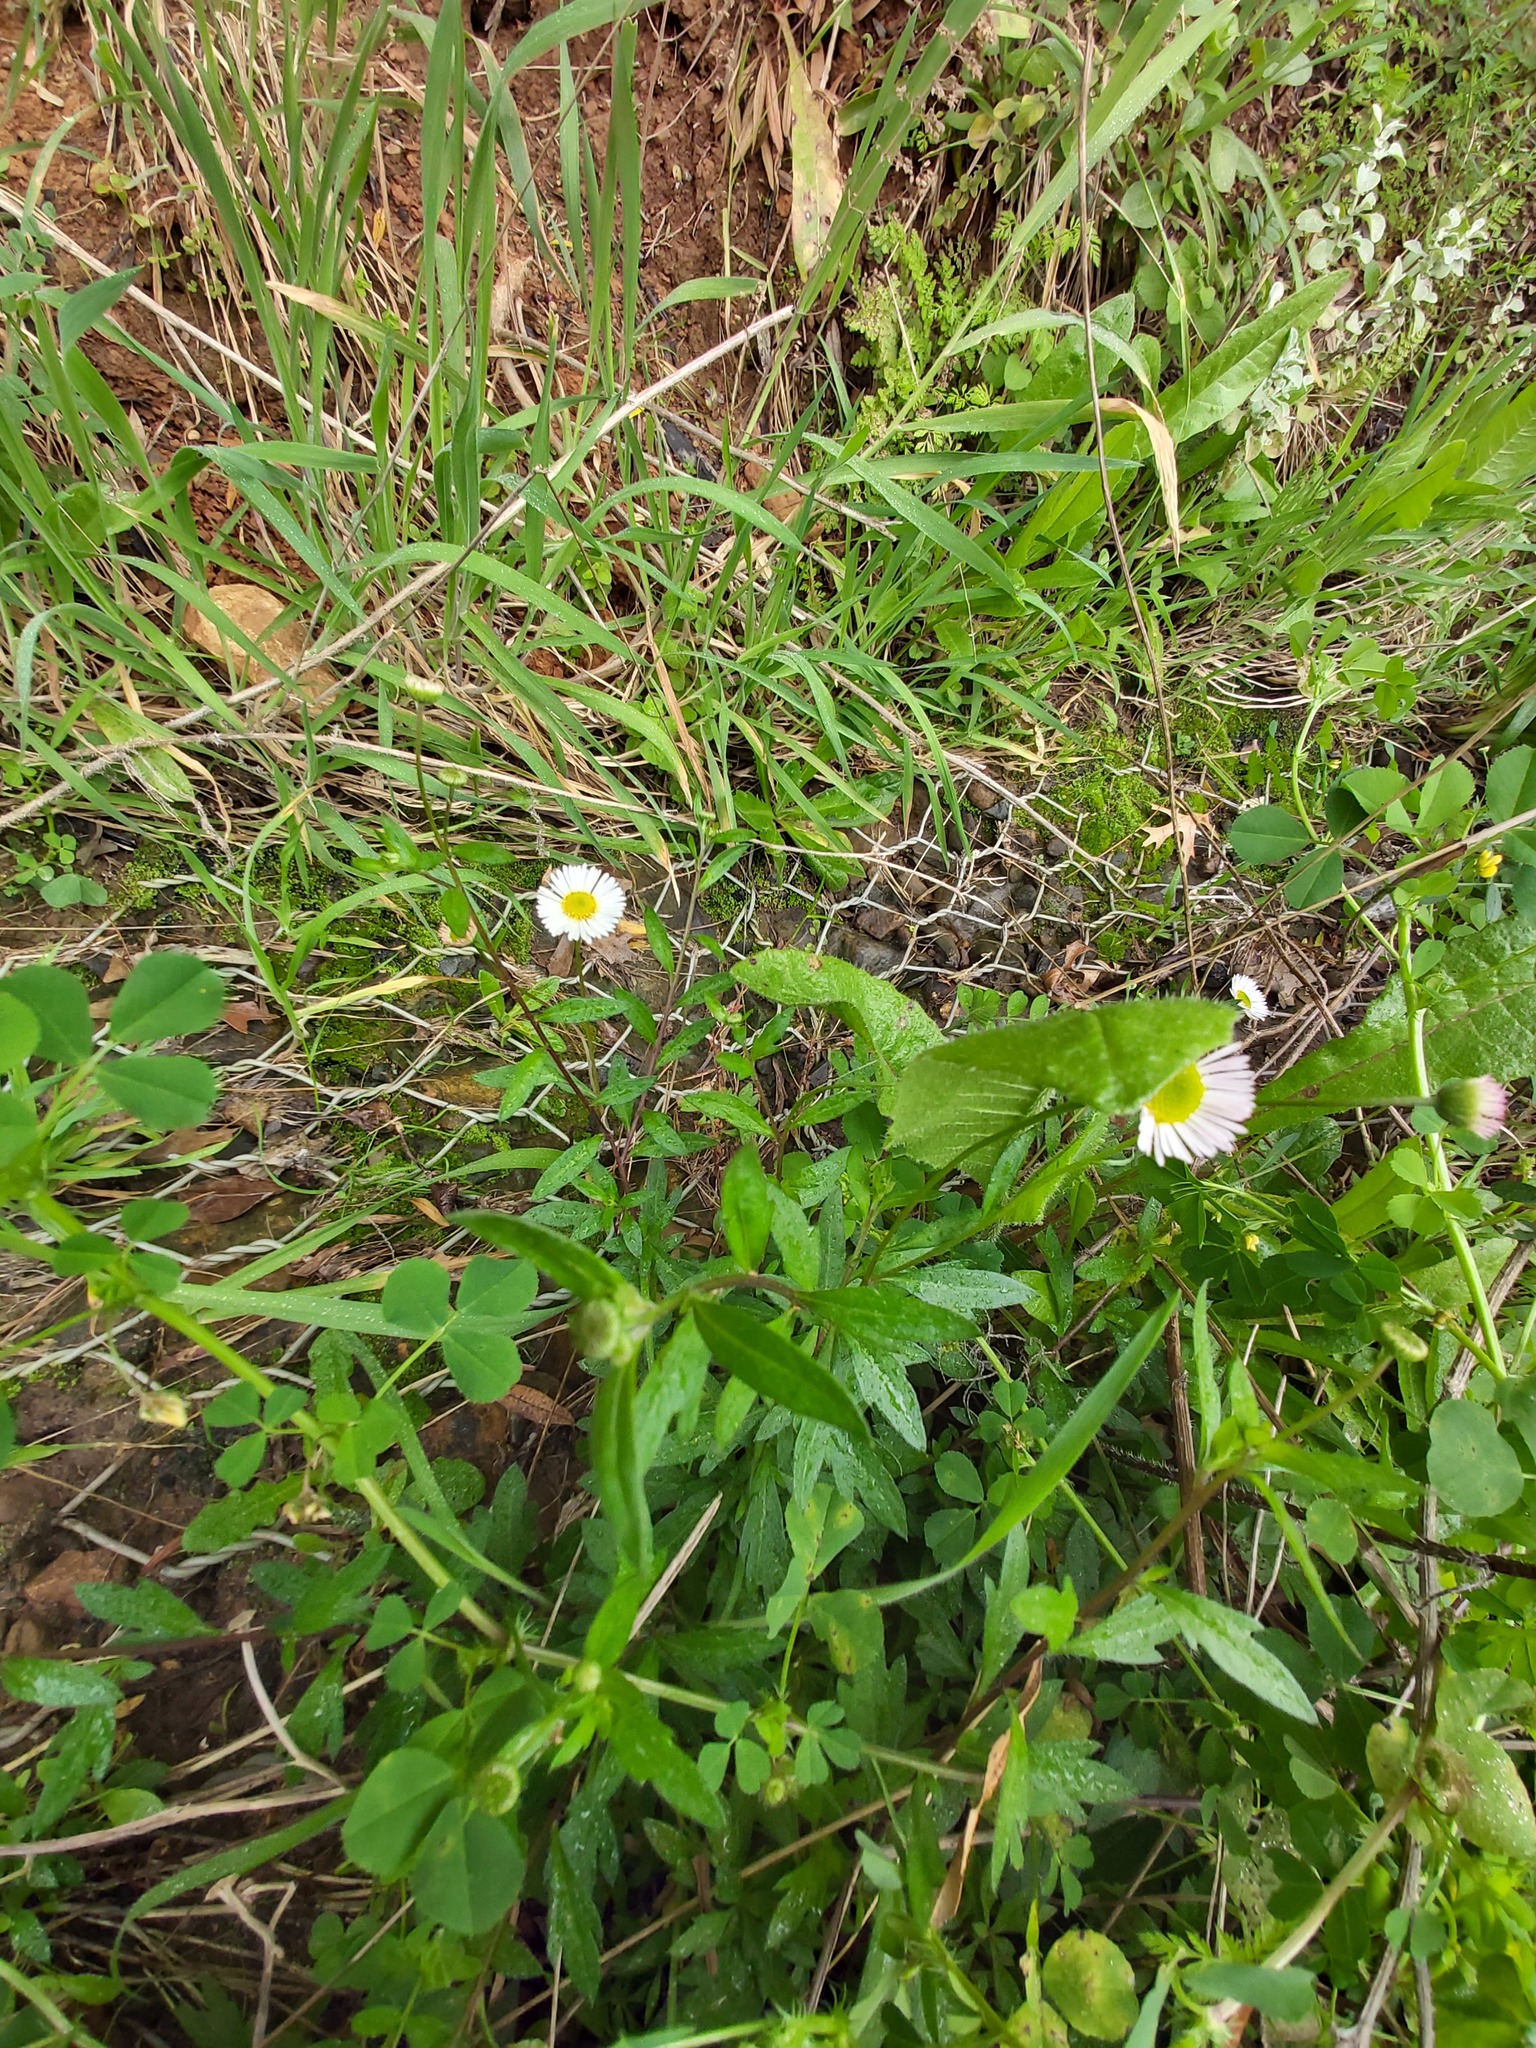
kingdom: Plantae
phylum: Tracheophyta
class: Magnoliopsida
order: Asterales
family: Asteraceae
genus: Erigeron
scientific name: Erigeron karvinskianus
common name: Mexican fleabane
